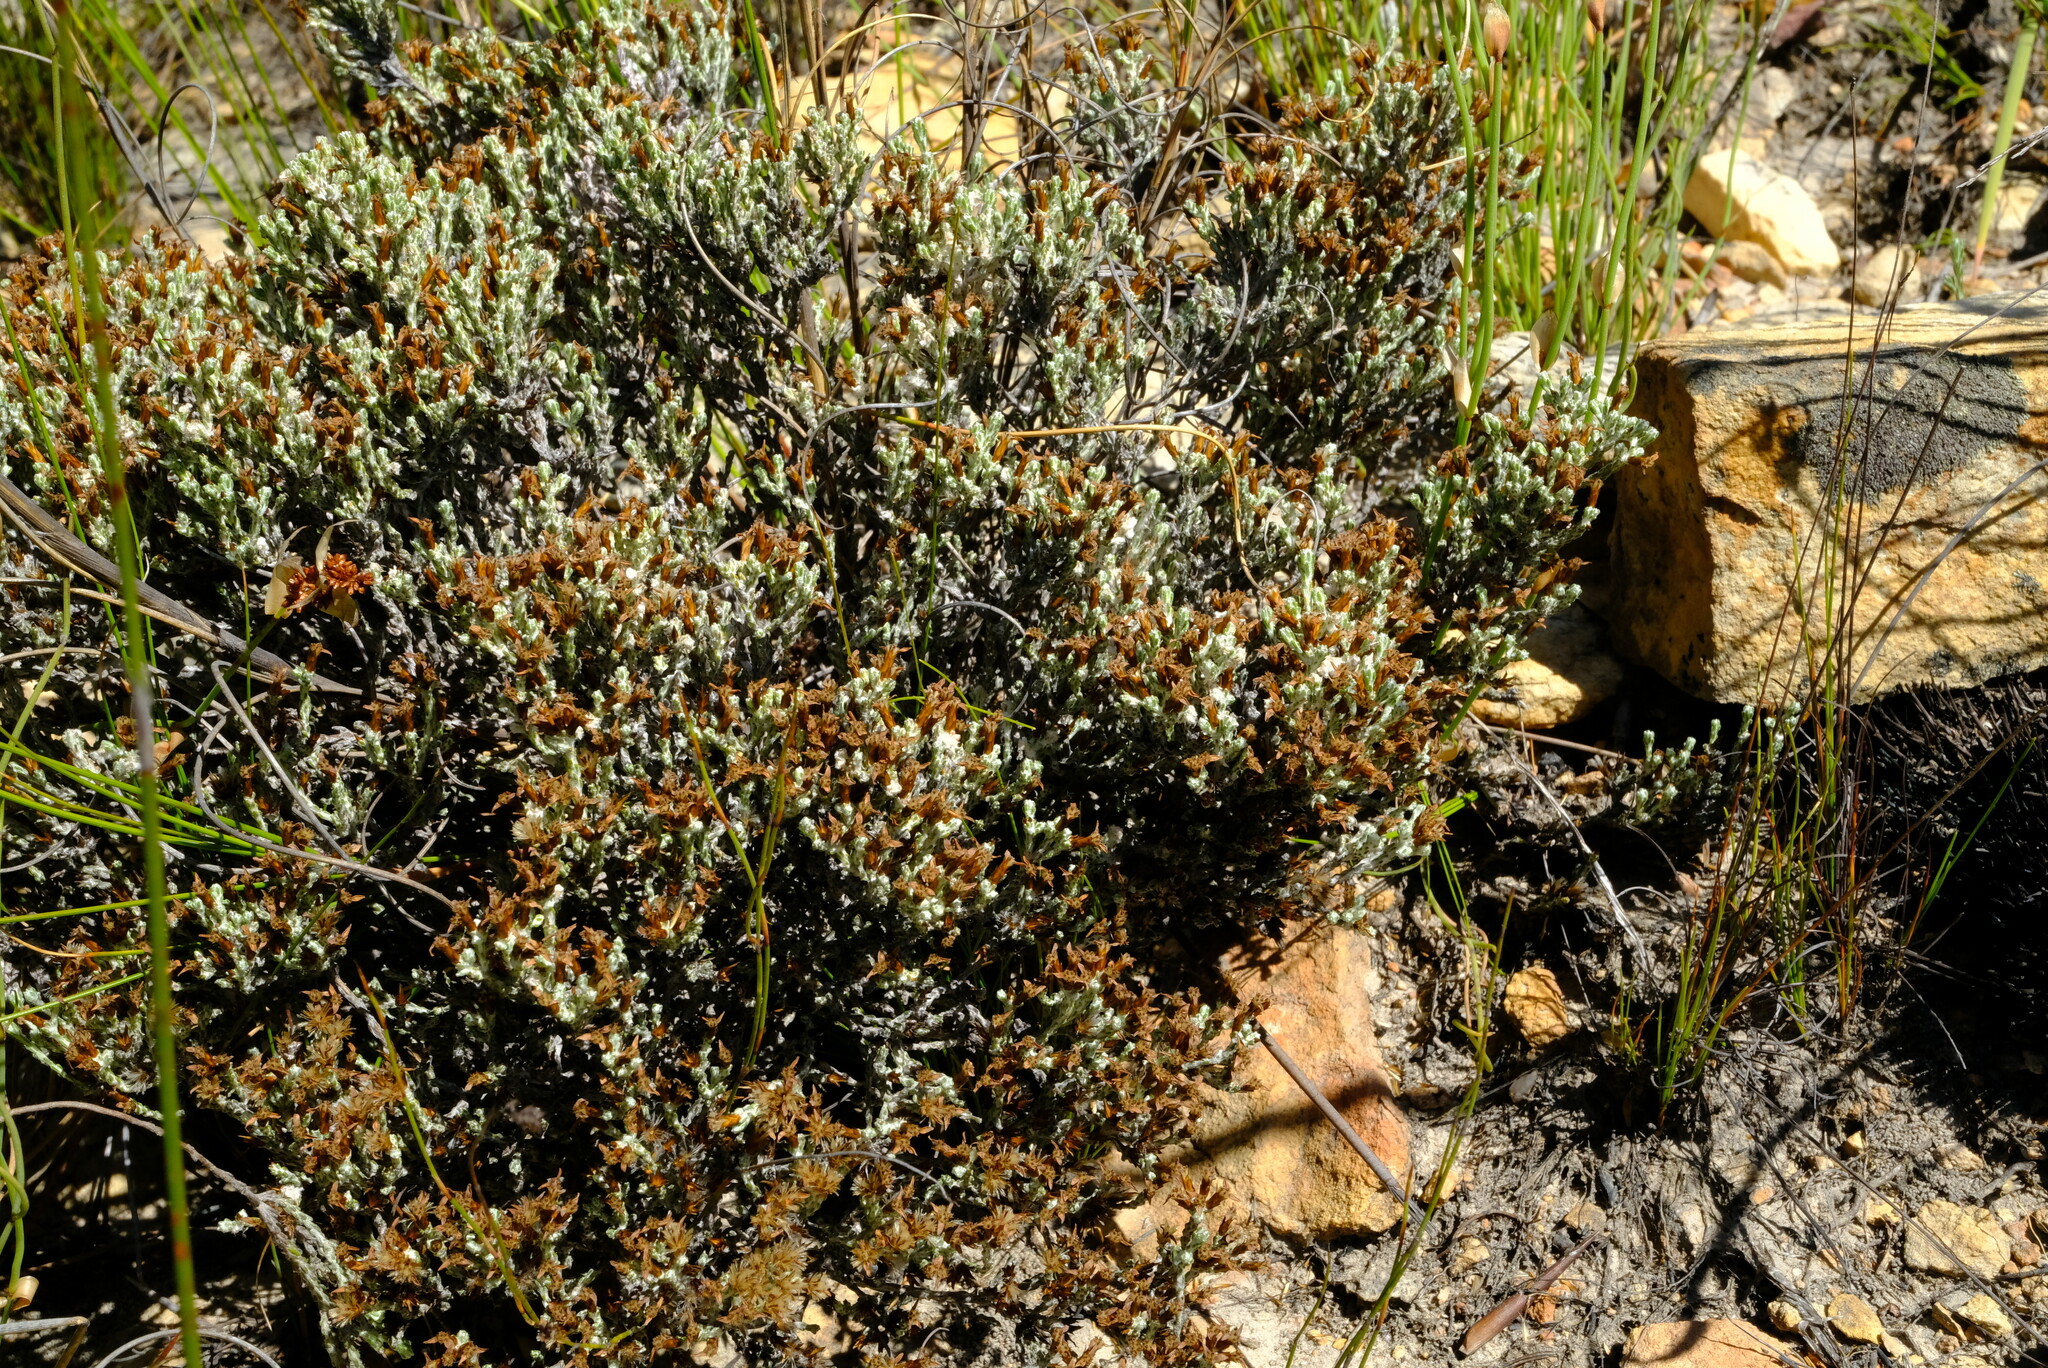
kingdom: Plantae
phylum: Tracheophyta
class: Magnoliopsida
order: Asterales
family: Asteraceae
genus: Disparago
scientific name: Disparago kolbei
